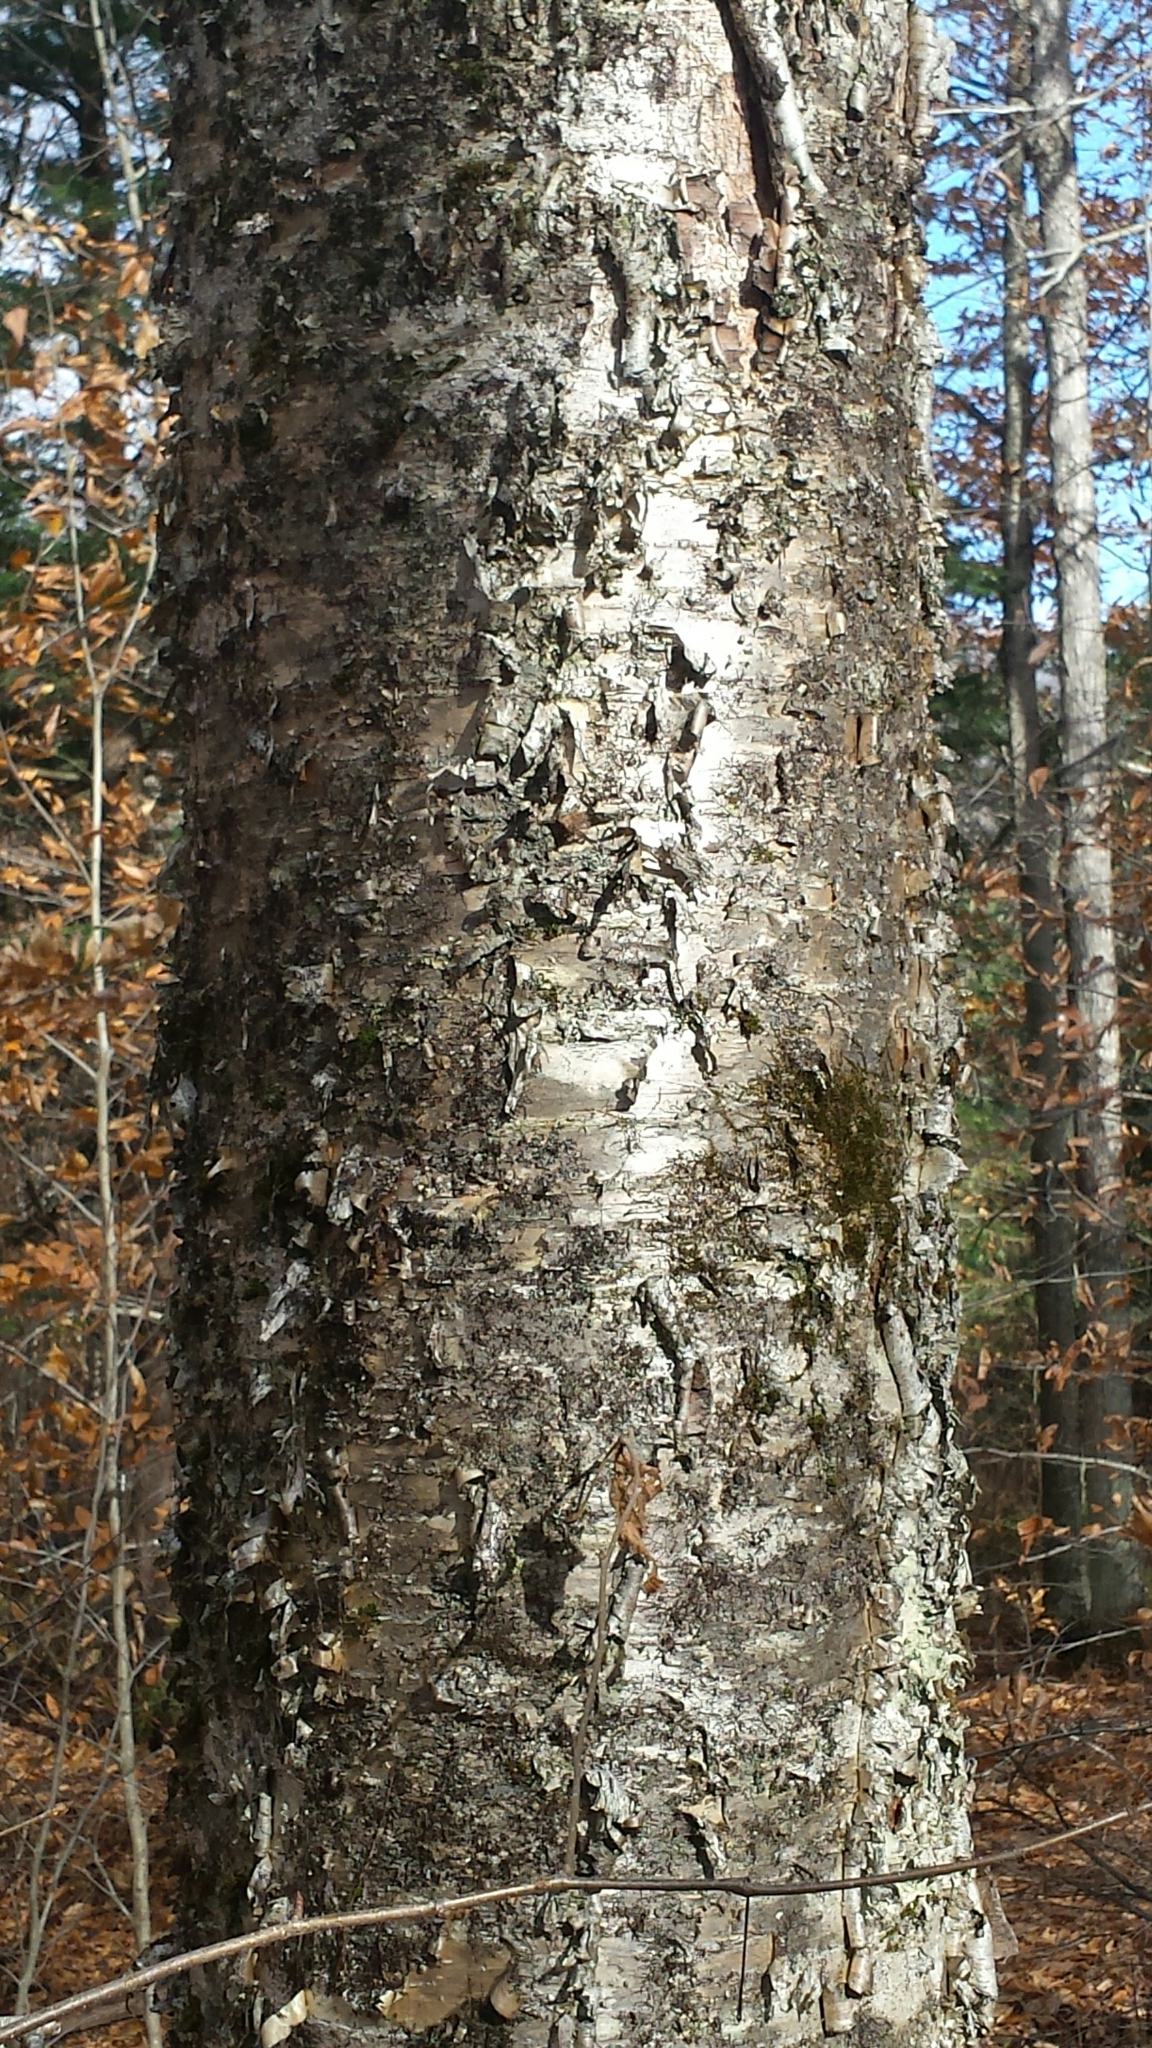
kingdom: Plantae
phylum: Tracheophyta
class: Magnoliopsida
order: Fagales
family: Betulaceae
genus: Betula
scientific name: Betula alleghaniensis
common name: Yellow birch
